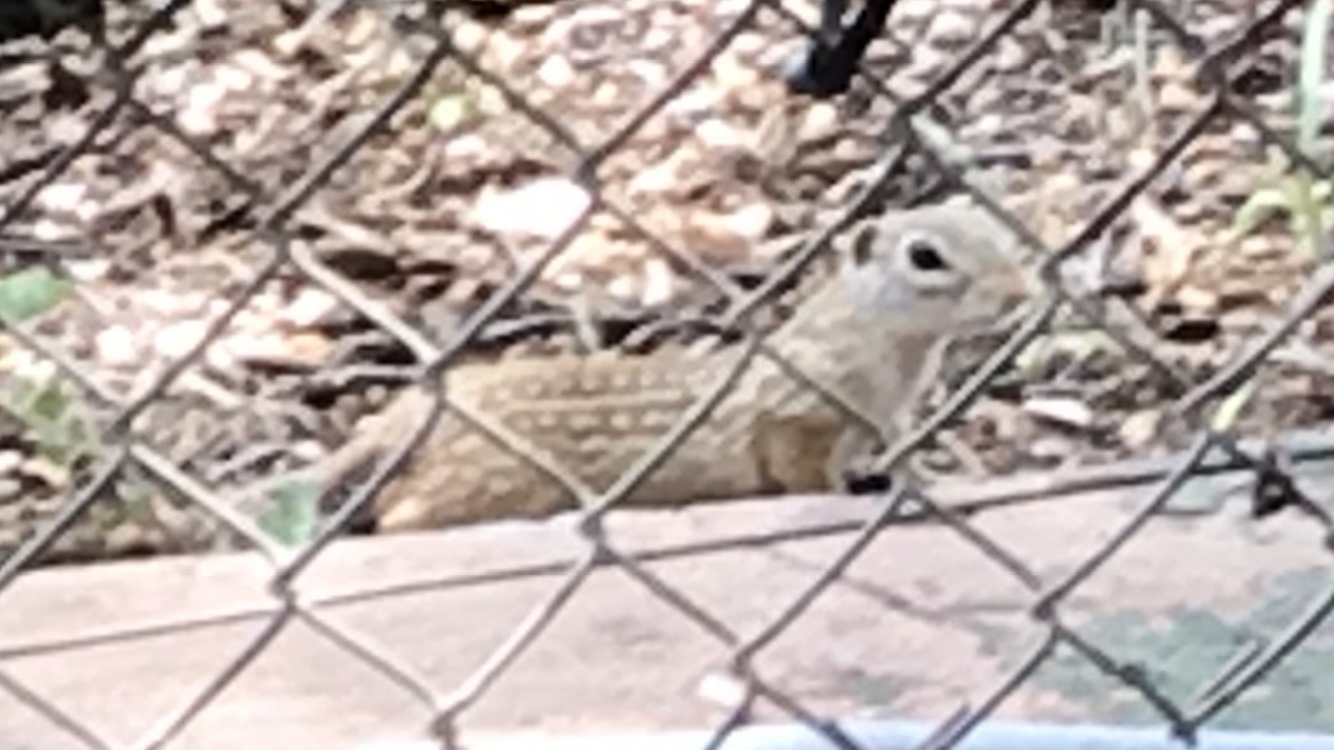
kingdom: Animalia
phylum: Chordata
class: Mammalia
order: Rodentia
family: Sciuridae
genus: Ictidomys
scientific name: Ictidomys parvidens
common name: Rio grande ground squirrel
